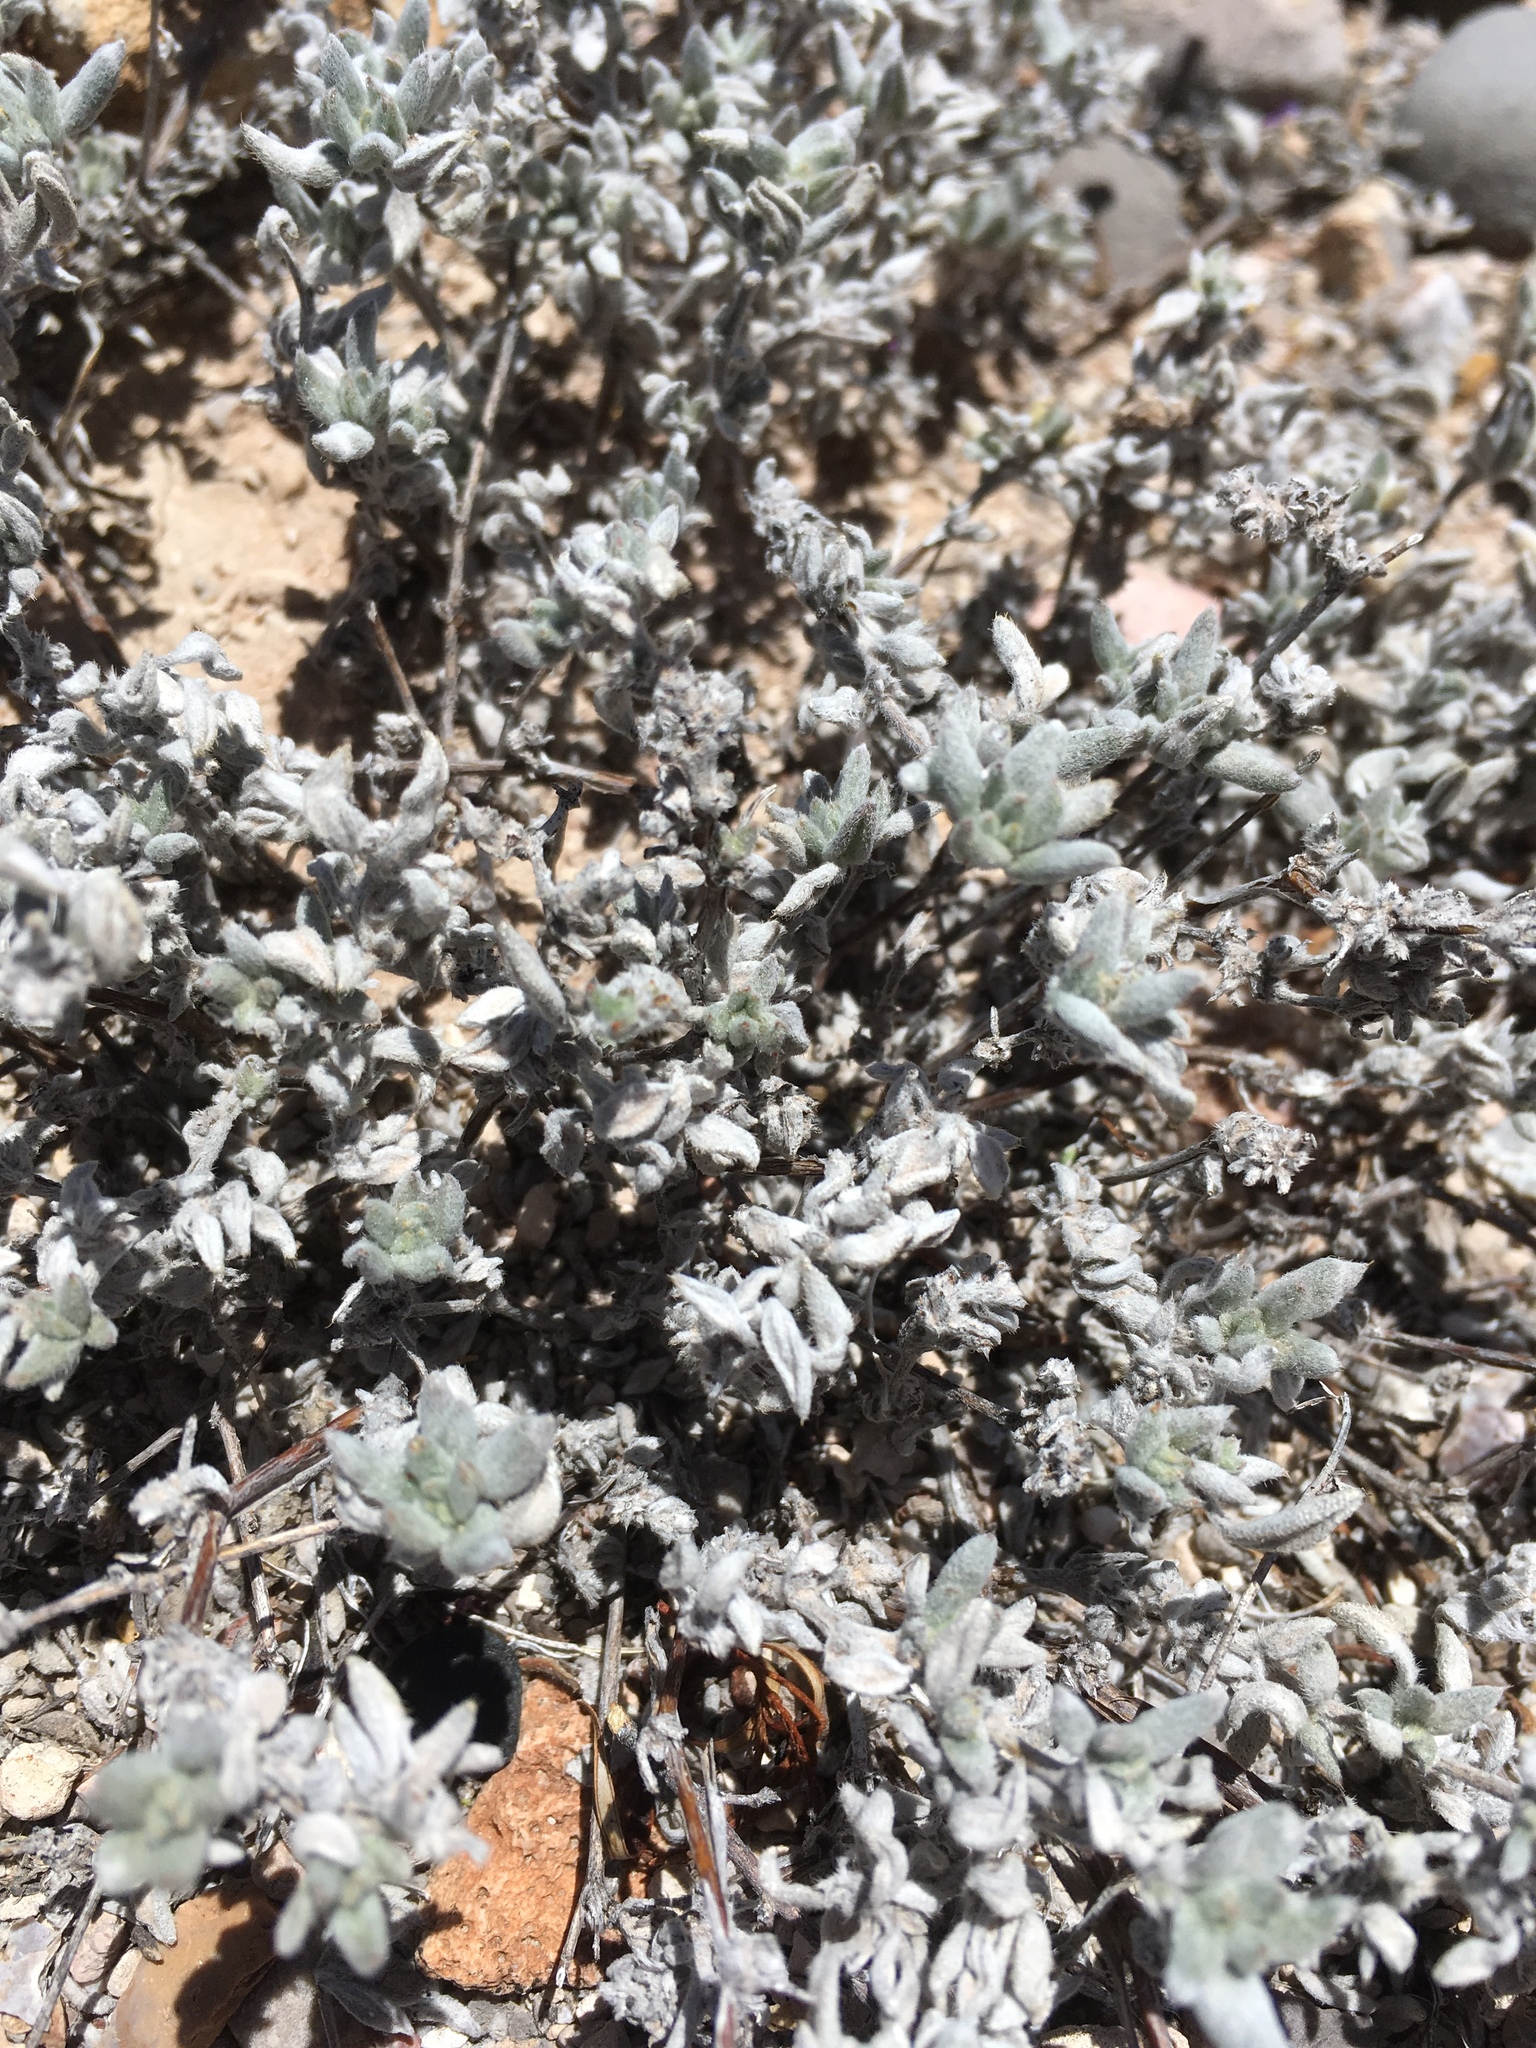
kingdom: Plantae
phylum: Tracheophyta
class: Magnoliopsida
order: Boraginales
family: Ehretiaceae
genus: Tiquilia
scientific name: Tiquilia canescens
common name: Hairy tiquilia
